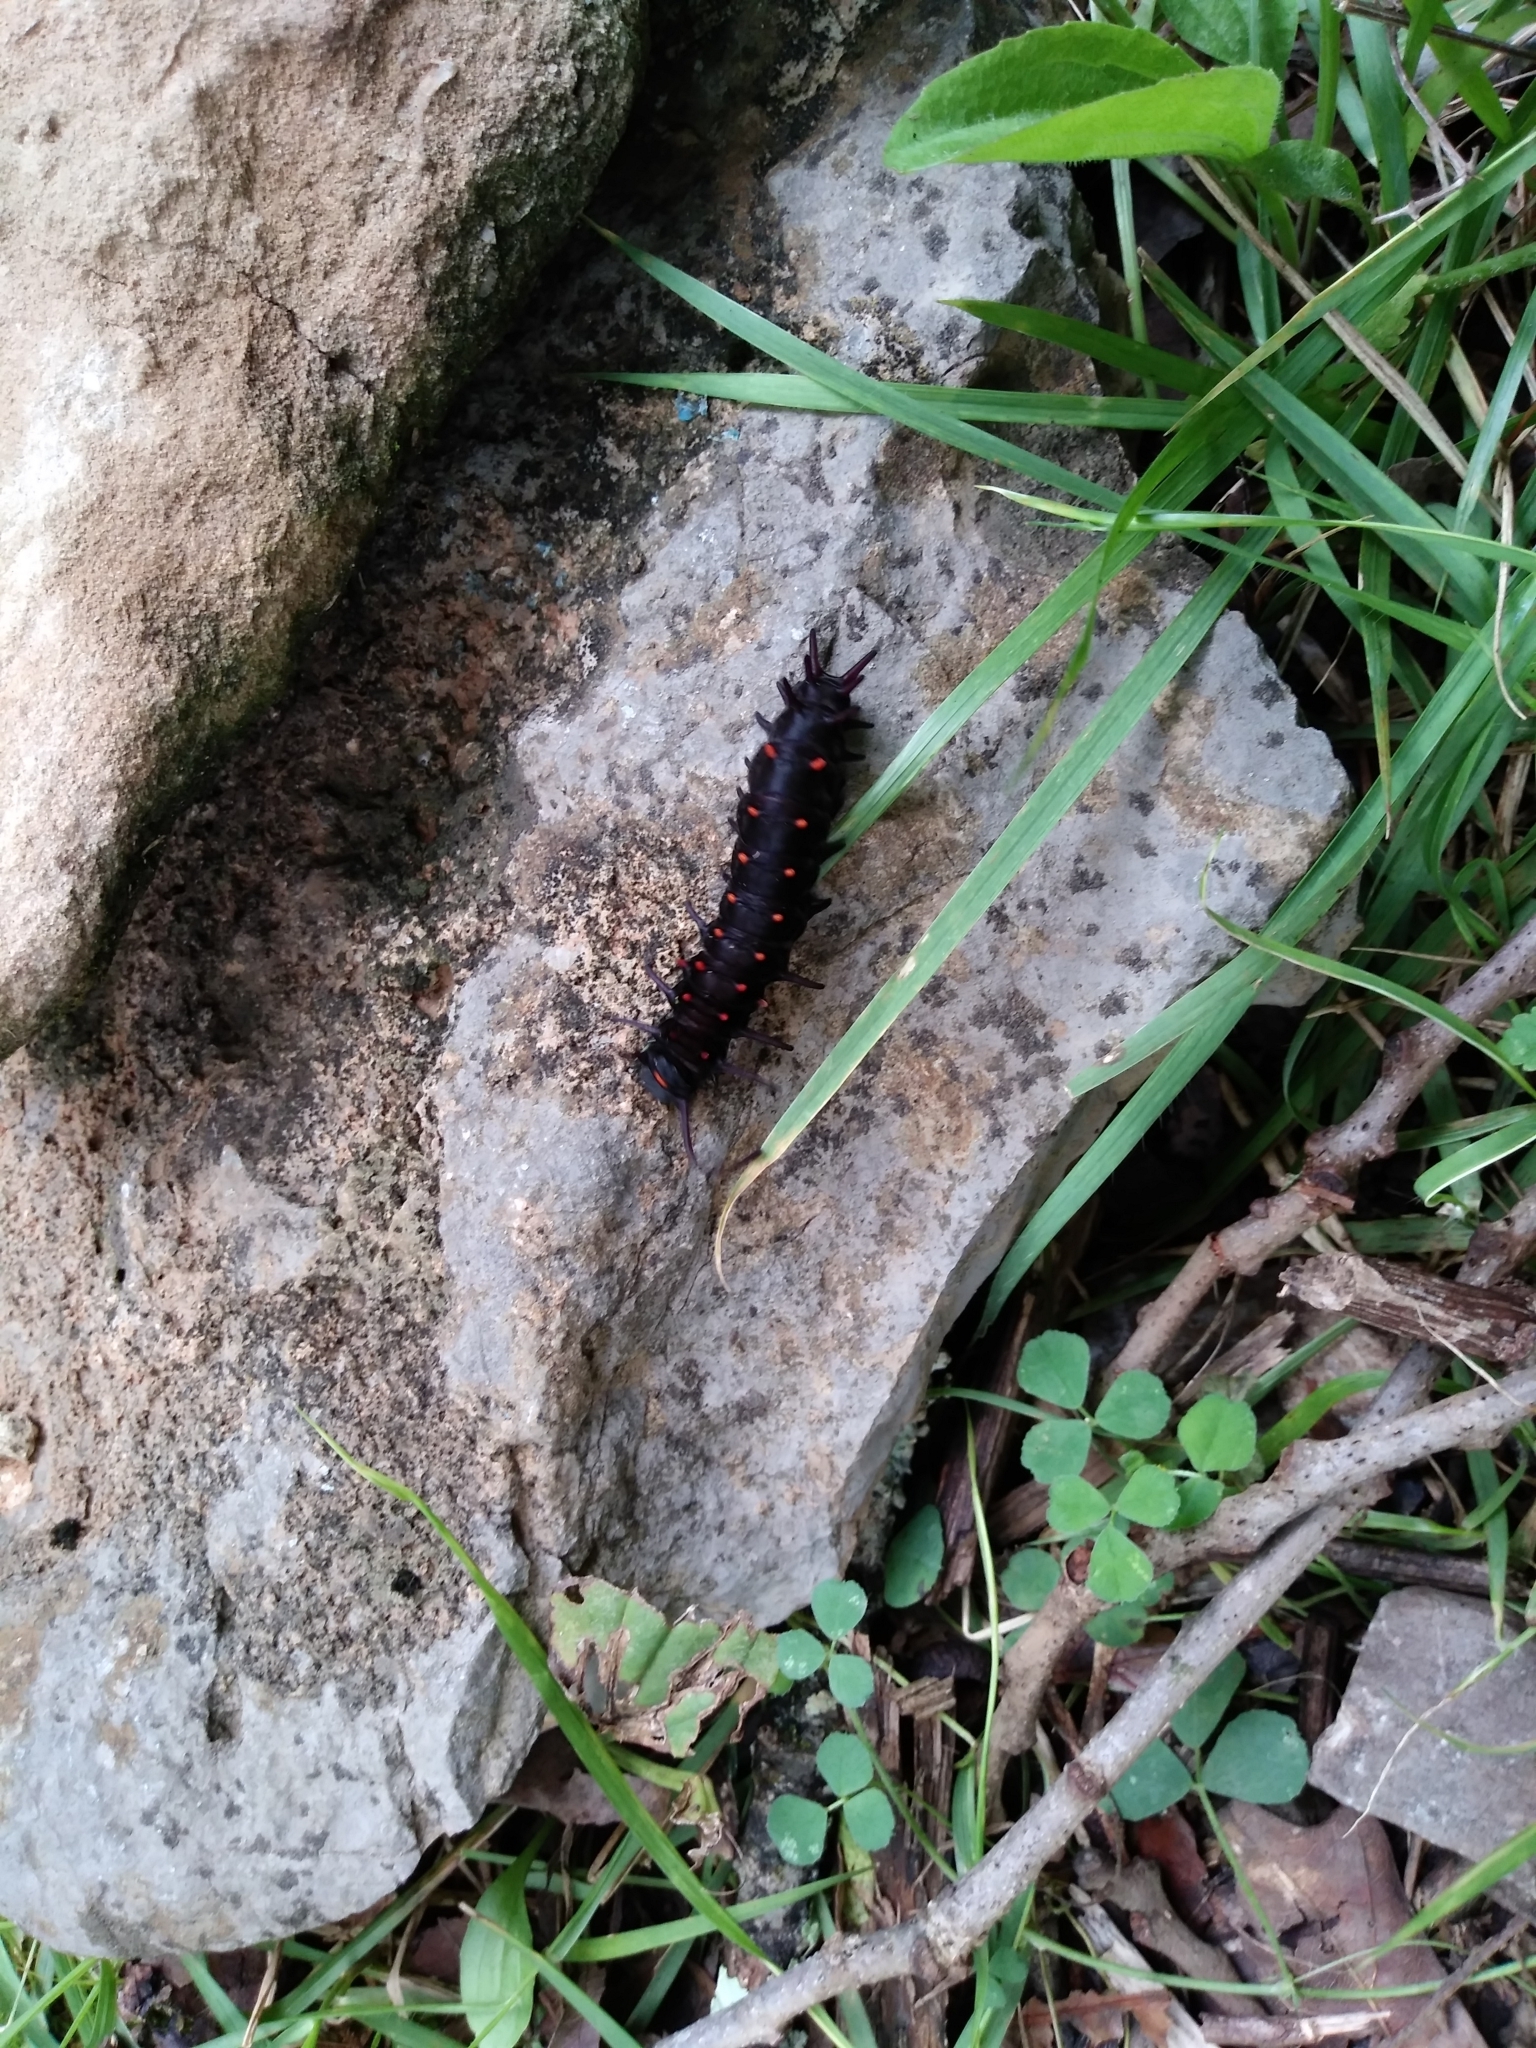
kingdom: Animalia
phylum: Arthropoda
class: Insecta
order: Lepidoptera
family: Papilionidae
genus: Battus
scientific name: Battus philenor
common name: Pipevine swallowtail
